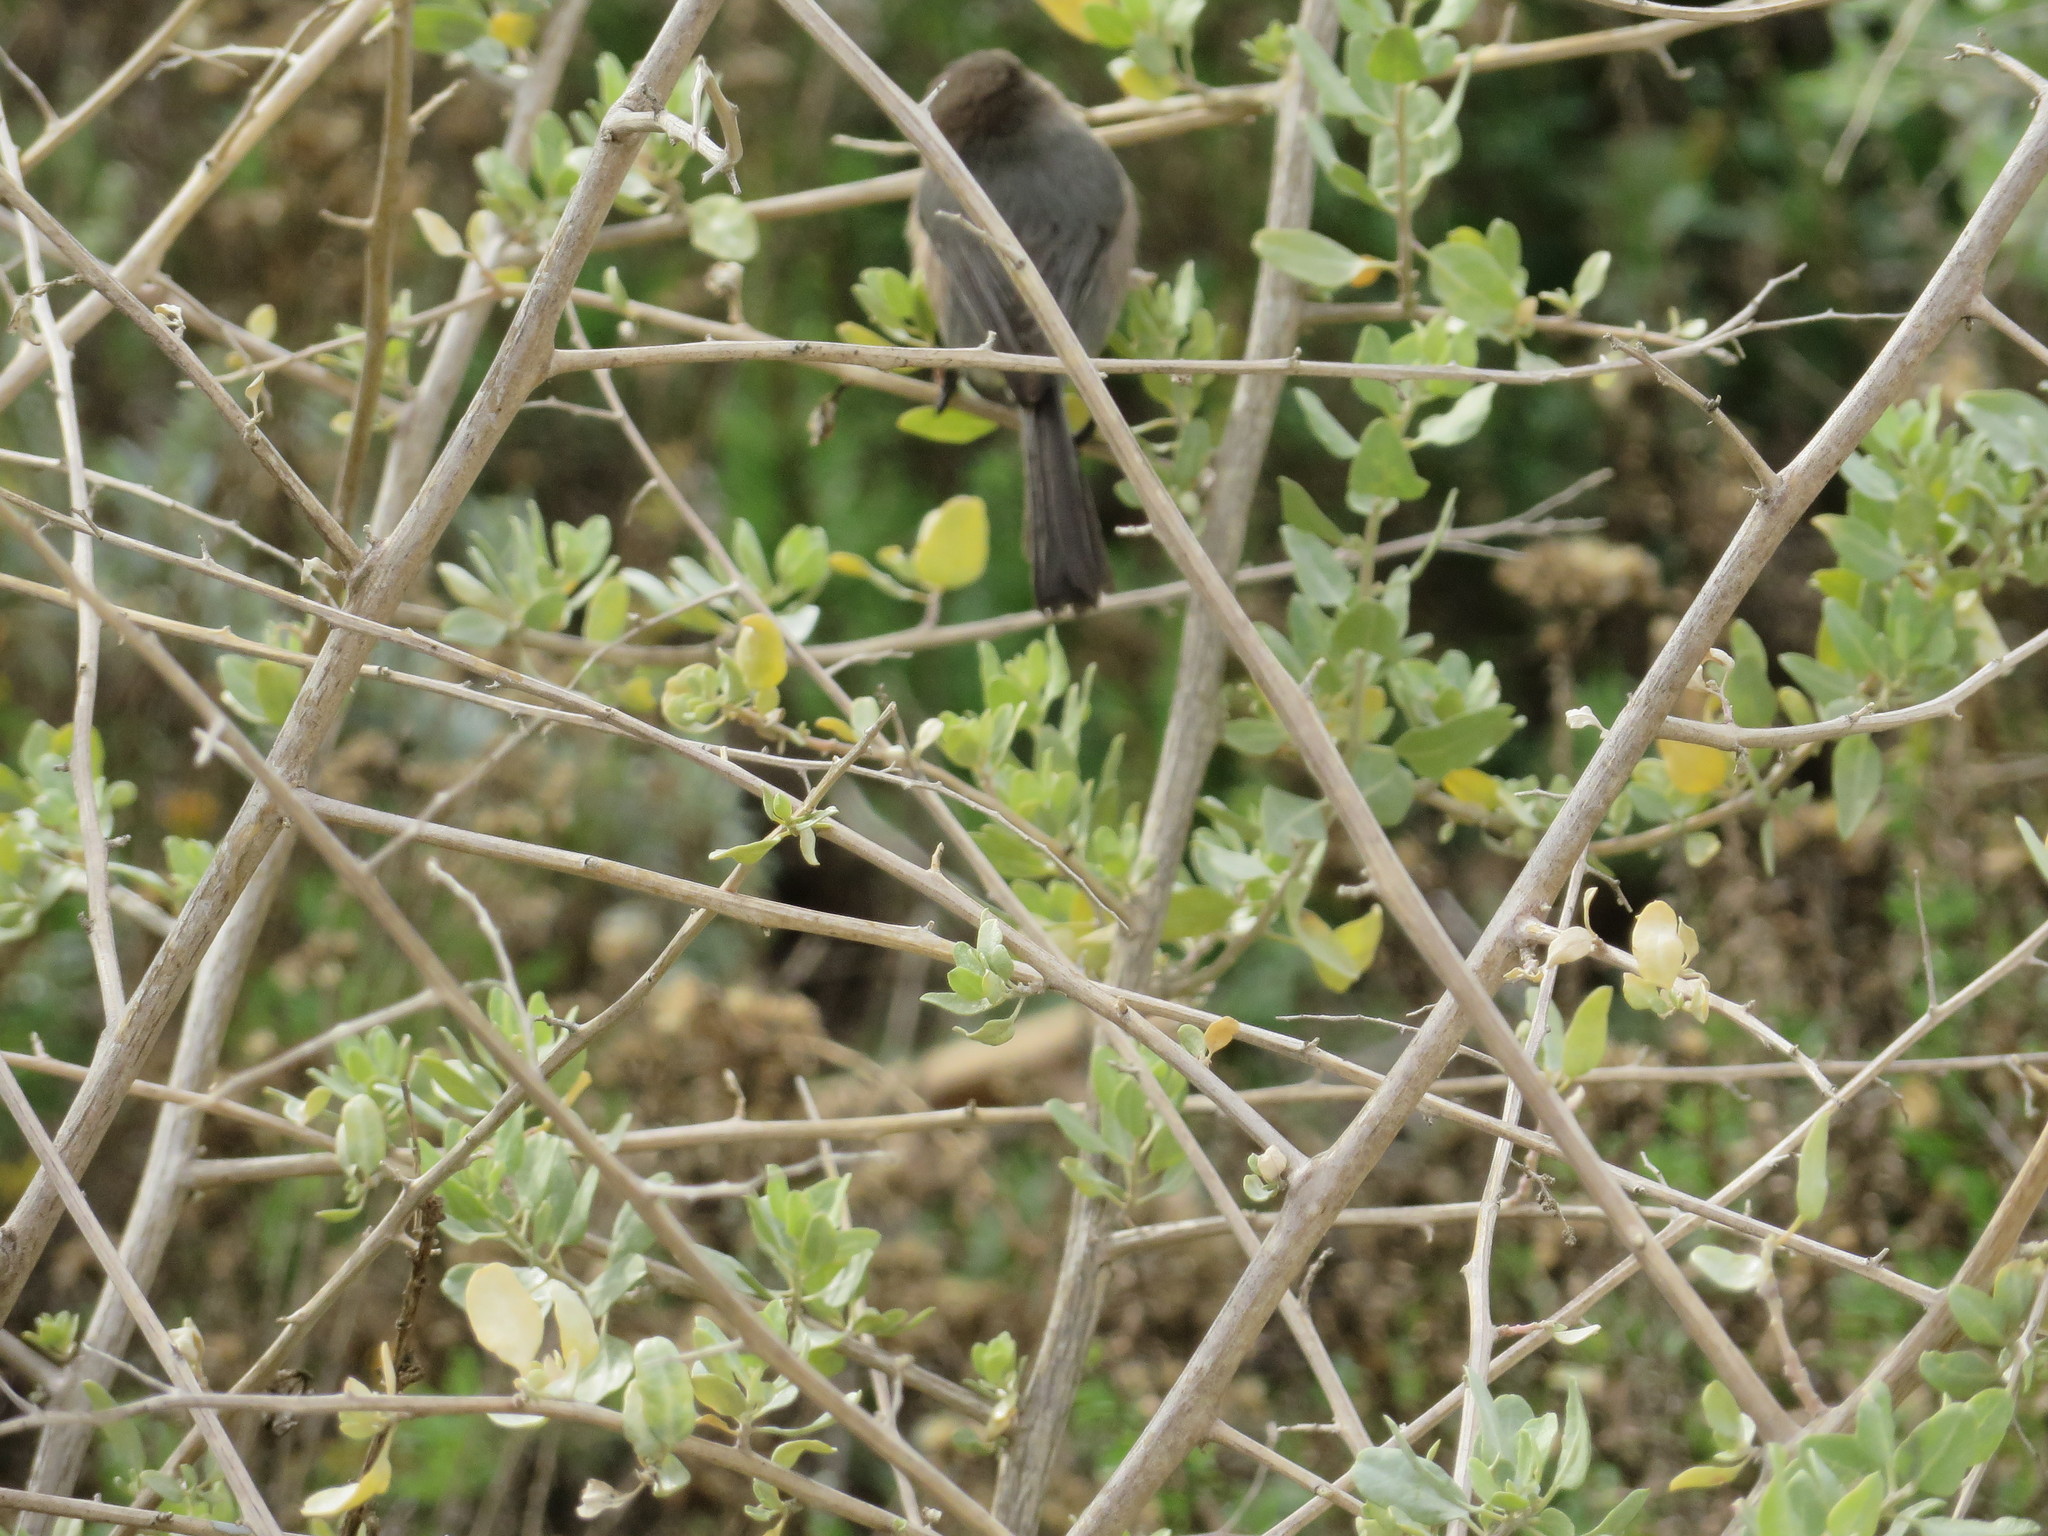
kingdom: Animalia
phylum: Chordata
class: Aves
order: Passeriformes
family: Aegithalidae
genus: Psaltriparus
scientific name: Psaltriparus minimus
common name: American bushtit
